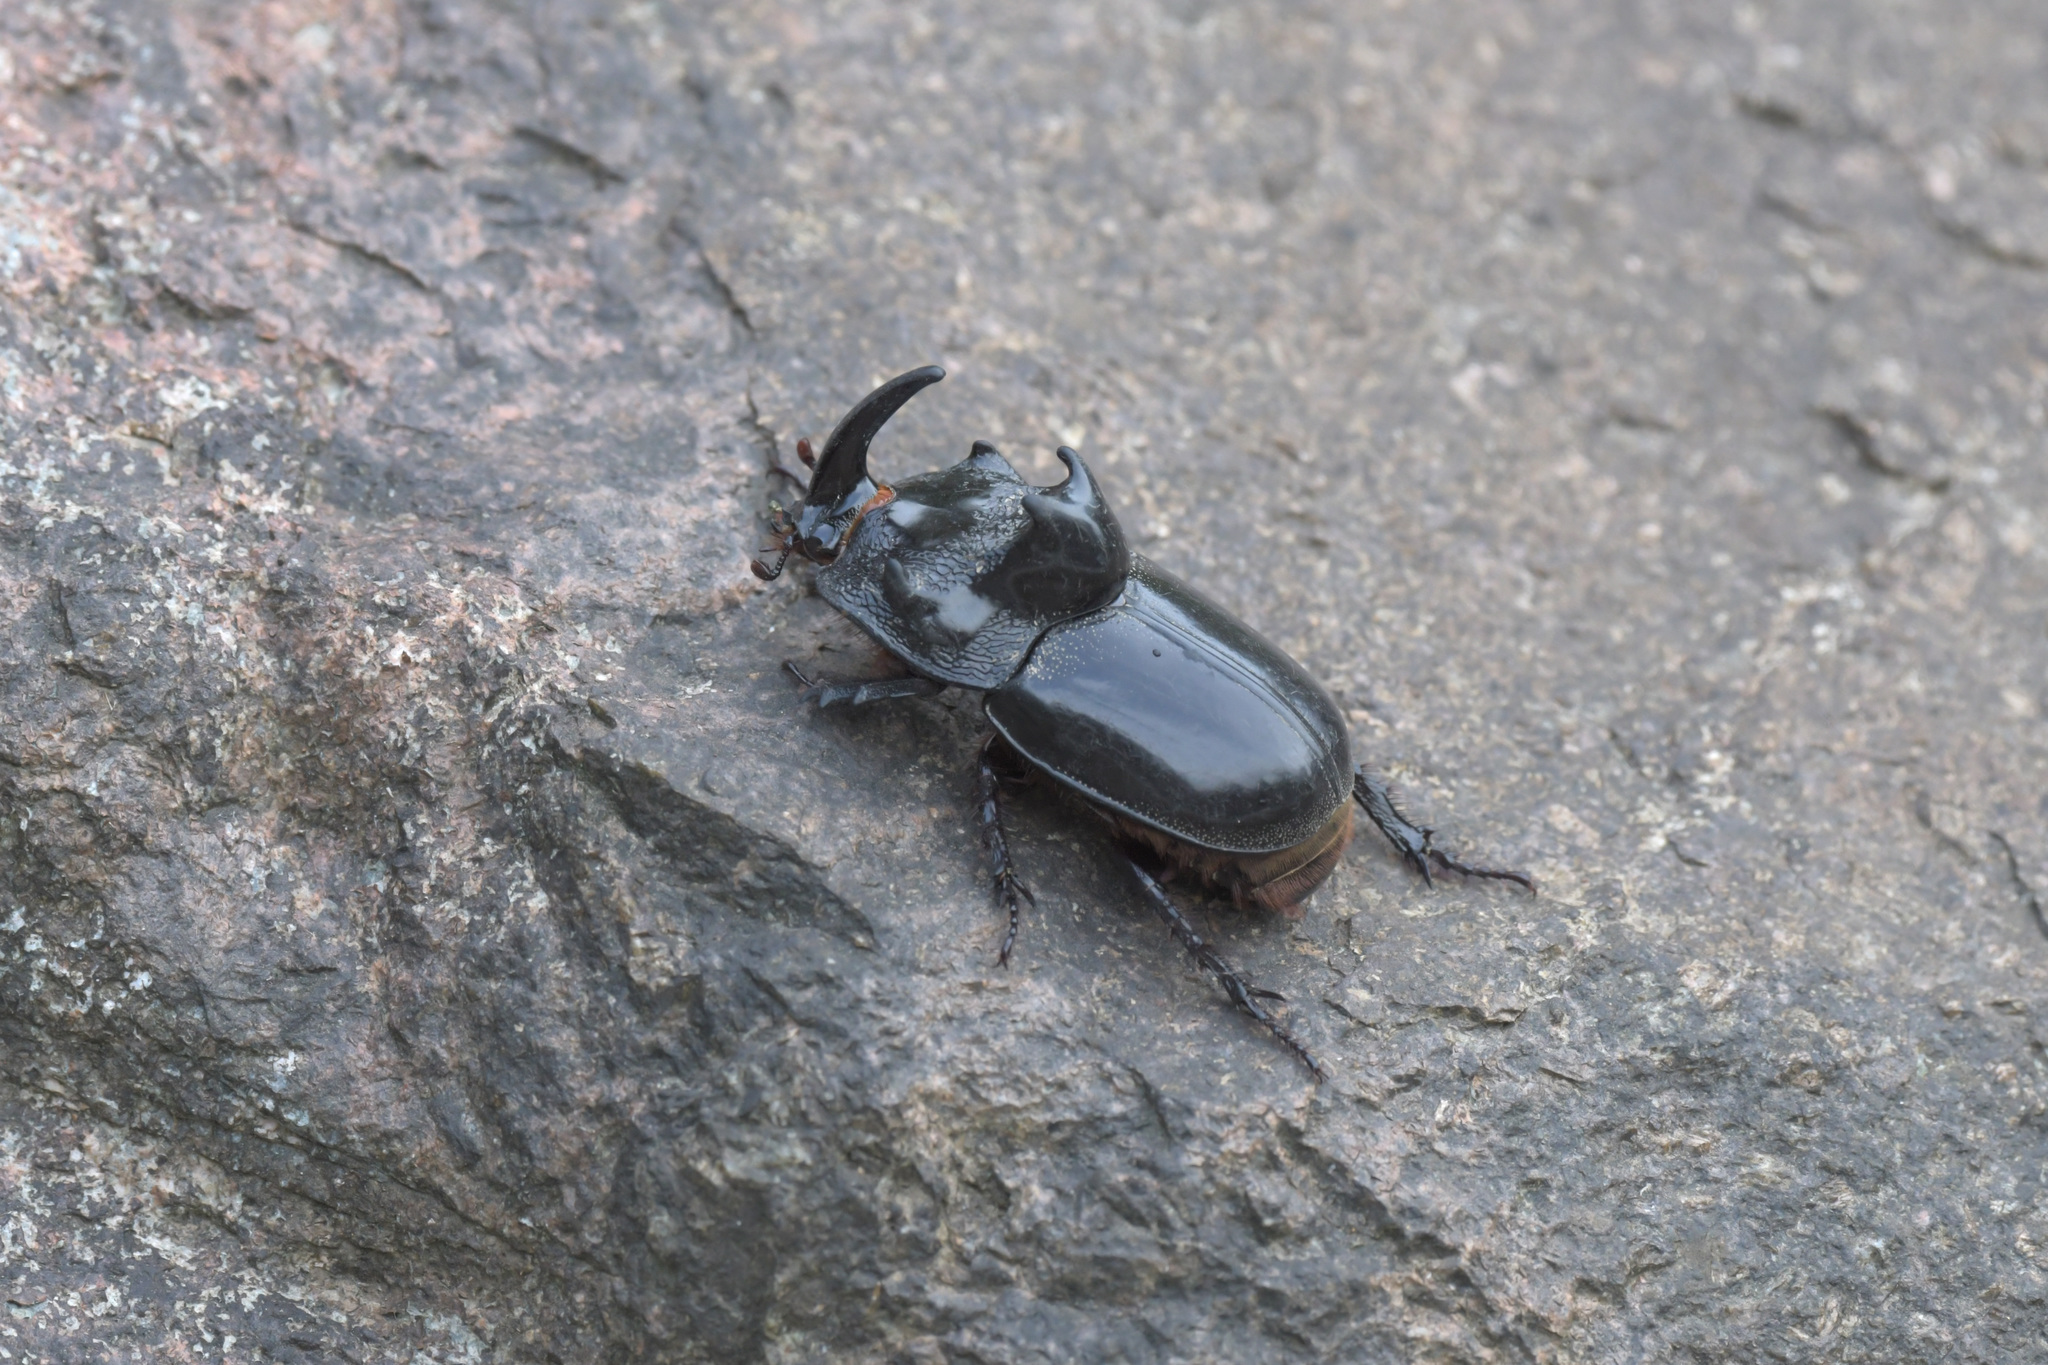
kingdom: Animalia
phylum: Arthropoda
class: Insecta
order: Coleoptera
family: Scarabaeidae
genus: Trichogomphus
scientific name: Trichogomphus mongol
